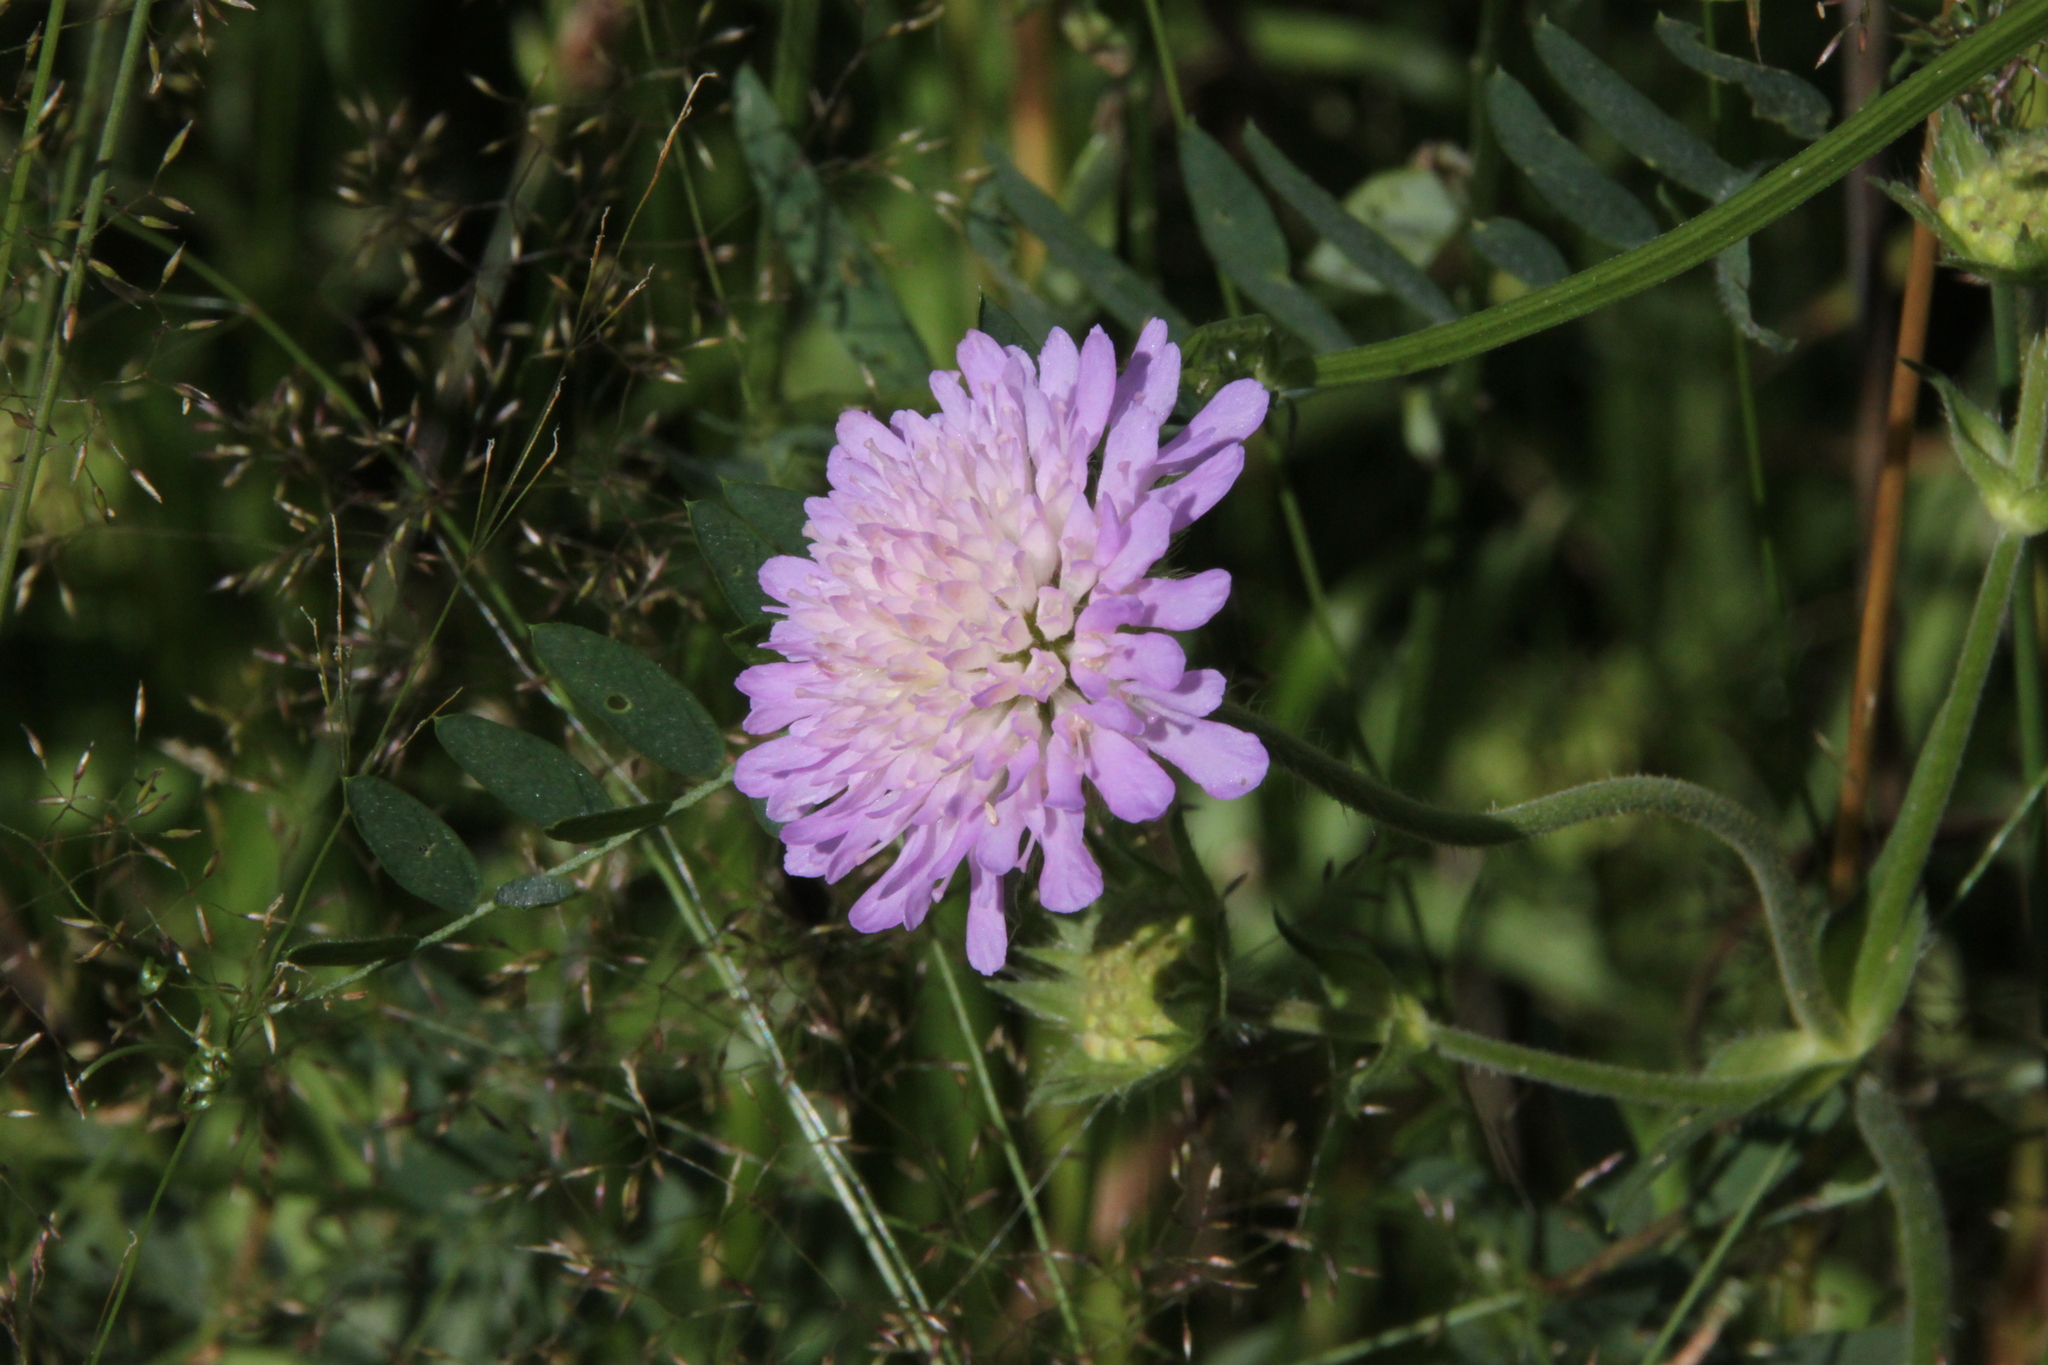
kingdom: Plantae
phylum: Tracheophyta
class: Magnoliopsida
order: Dipsacales
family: Caprifoliaceae
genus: Knautia
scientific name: Knautia arvensis
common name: Field scabiosa
